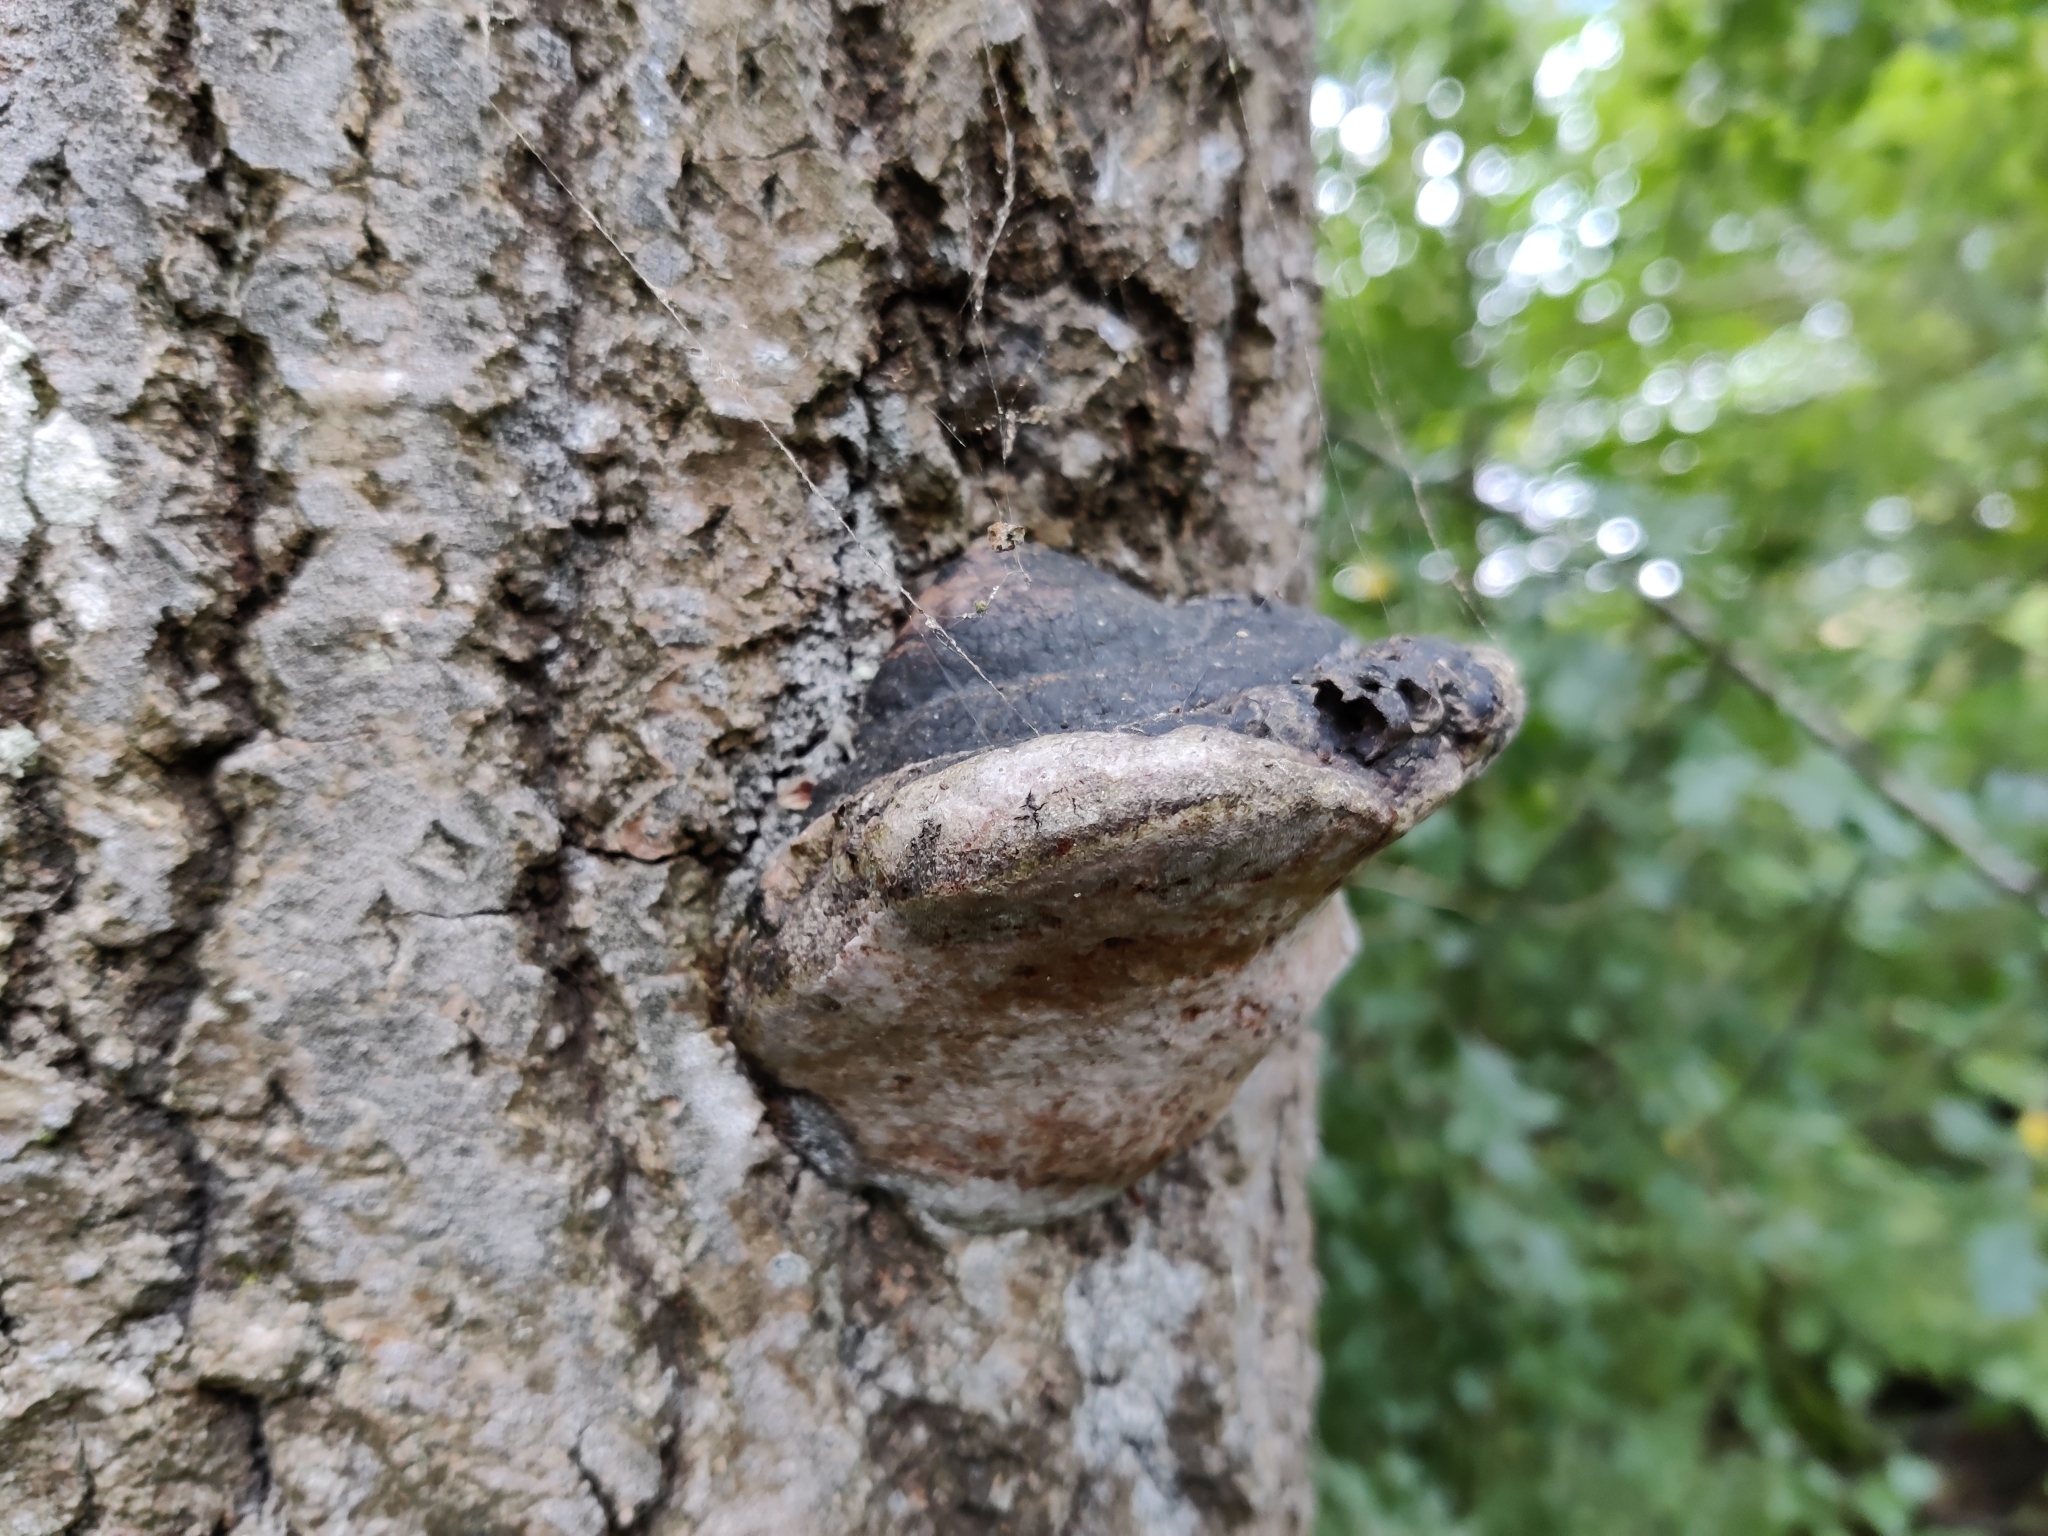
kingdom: Fungi
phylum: Basidiomycota
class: Agaricomycetes
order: Hymenochaetales
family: Hymenochaetaceae
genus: Phellinus
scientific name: Phellinus tremulae
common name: Aspen bracket
